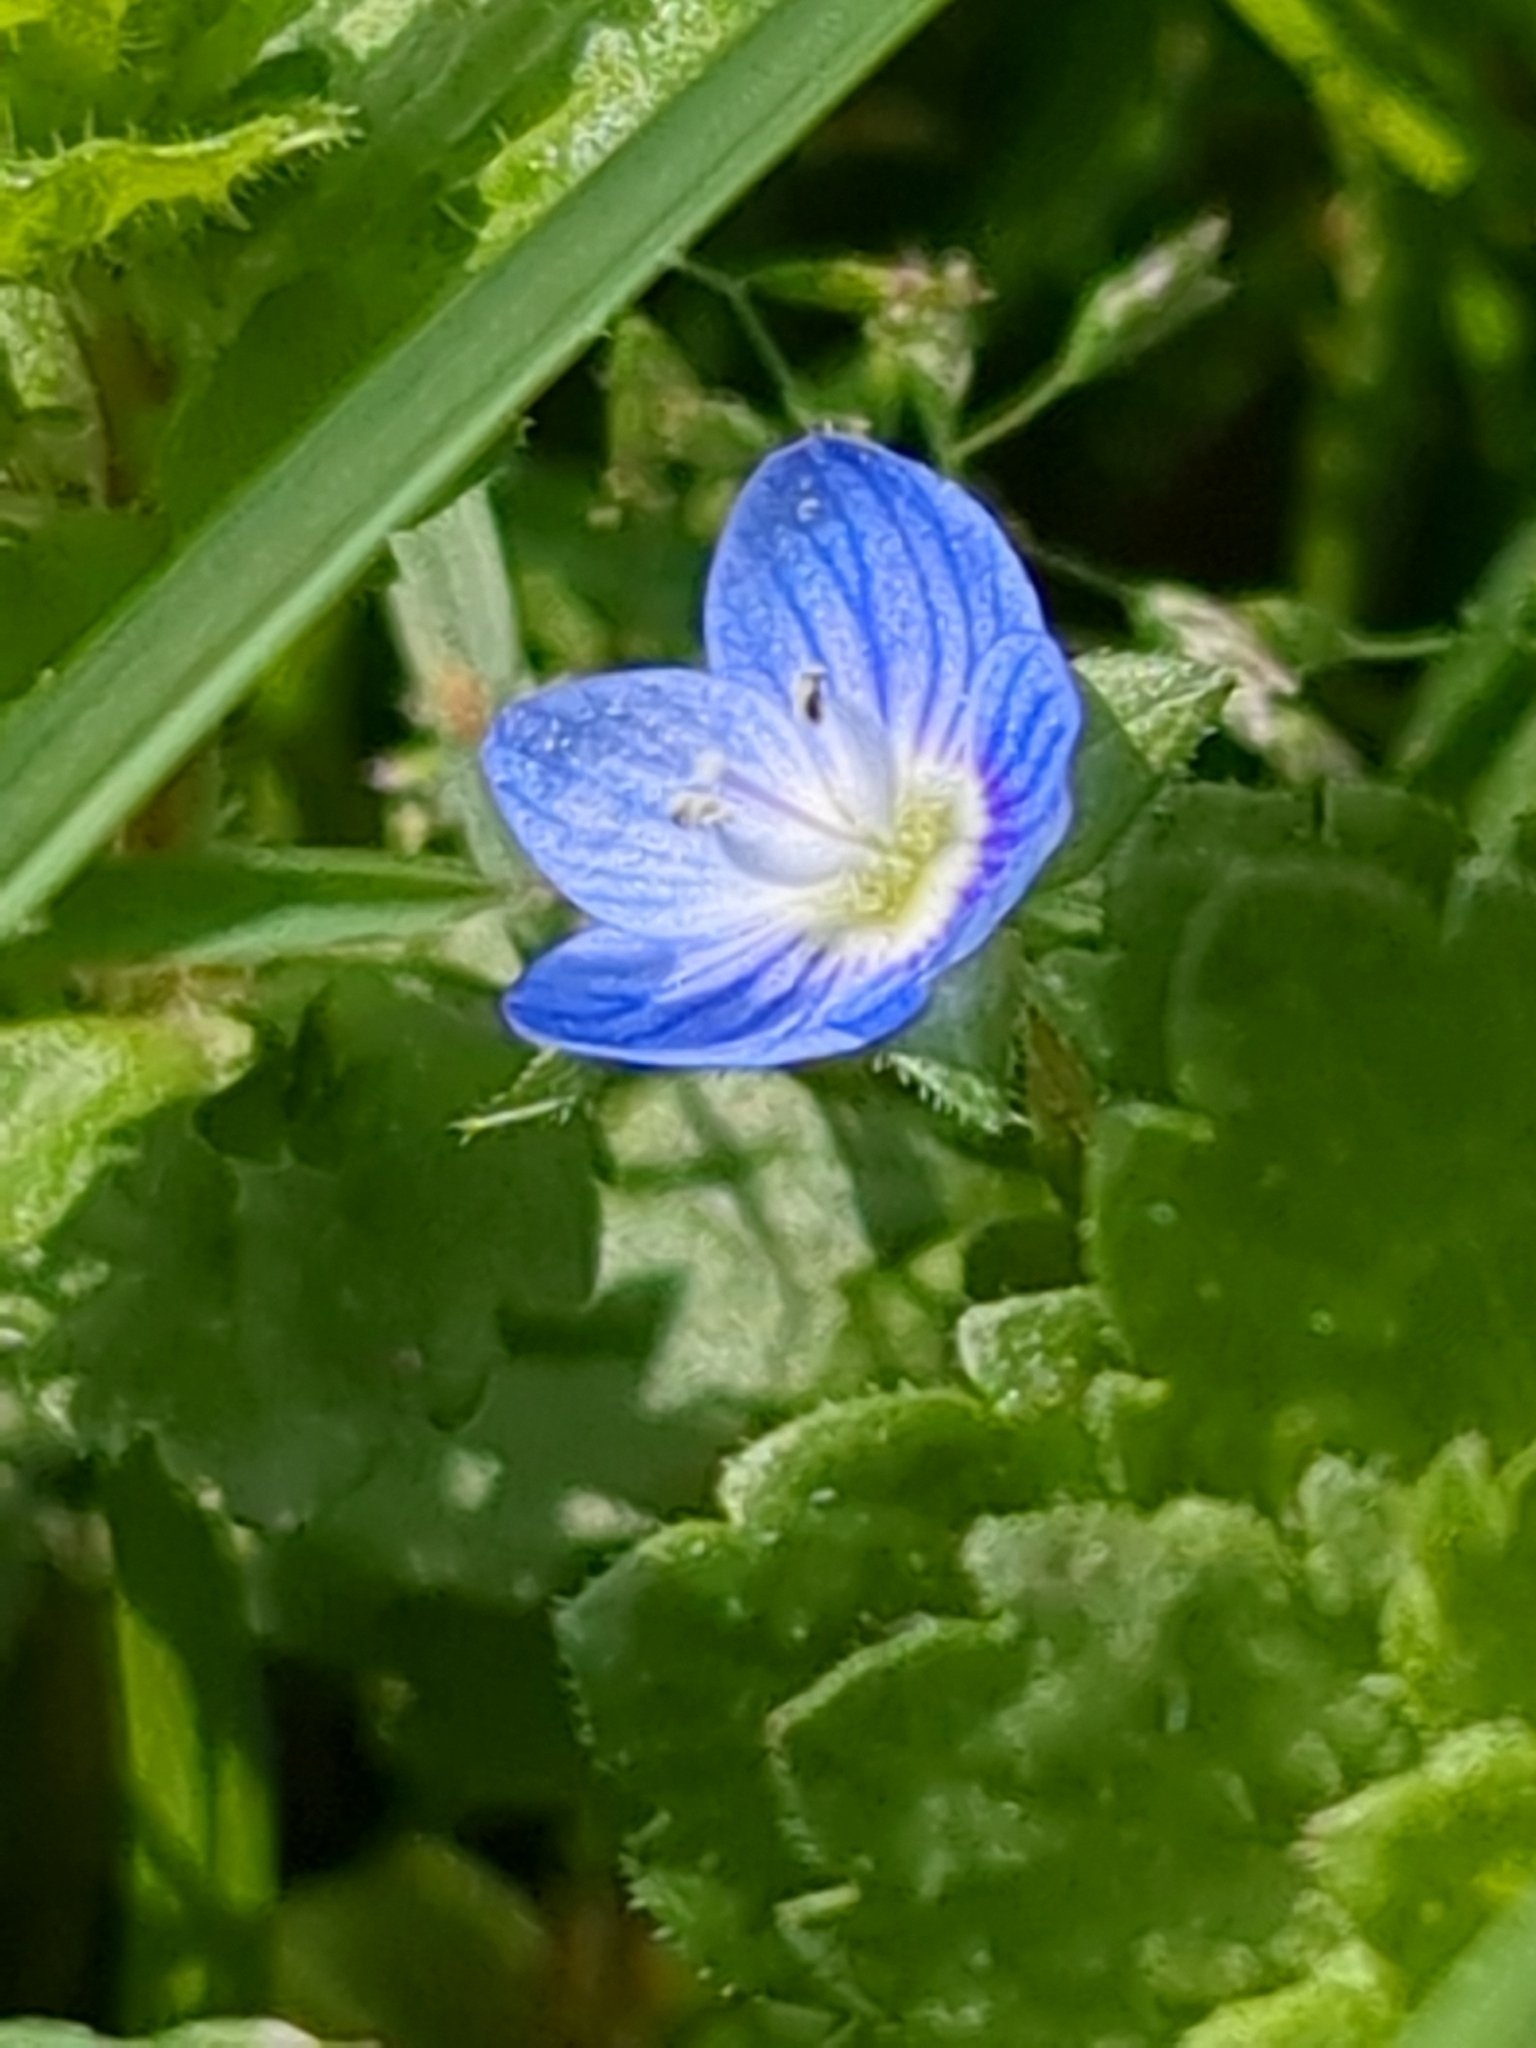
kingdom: Plantae
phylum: Tracheophyta
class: Magnoliopsida
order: Lamiales
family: Plantaginaceae
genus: Veronica
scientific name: Veronica persica
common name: Common field-speedwell
